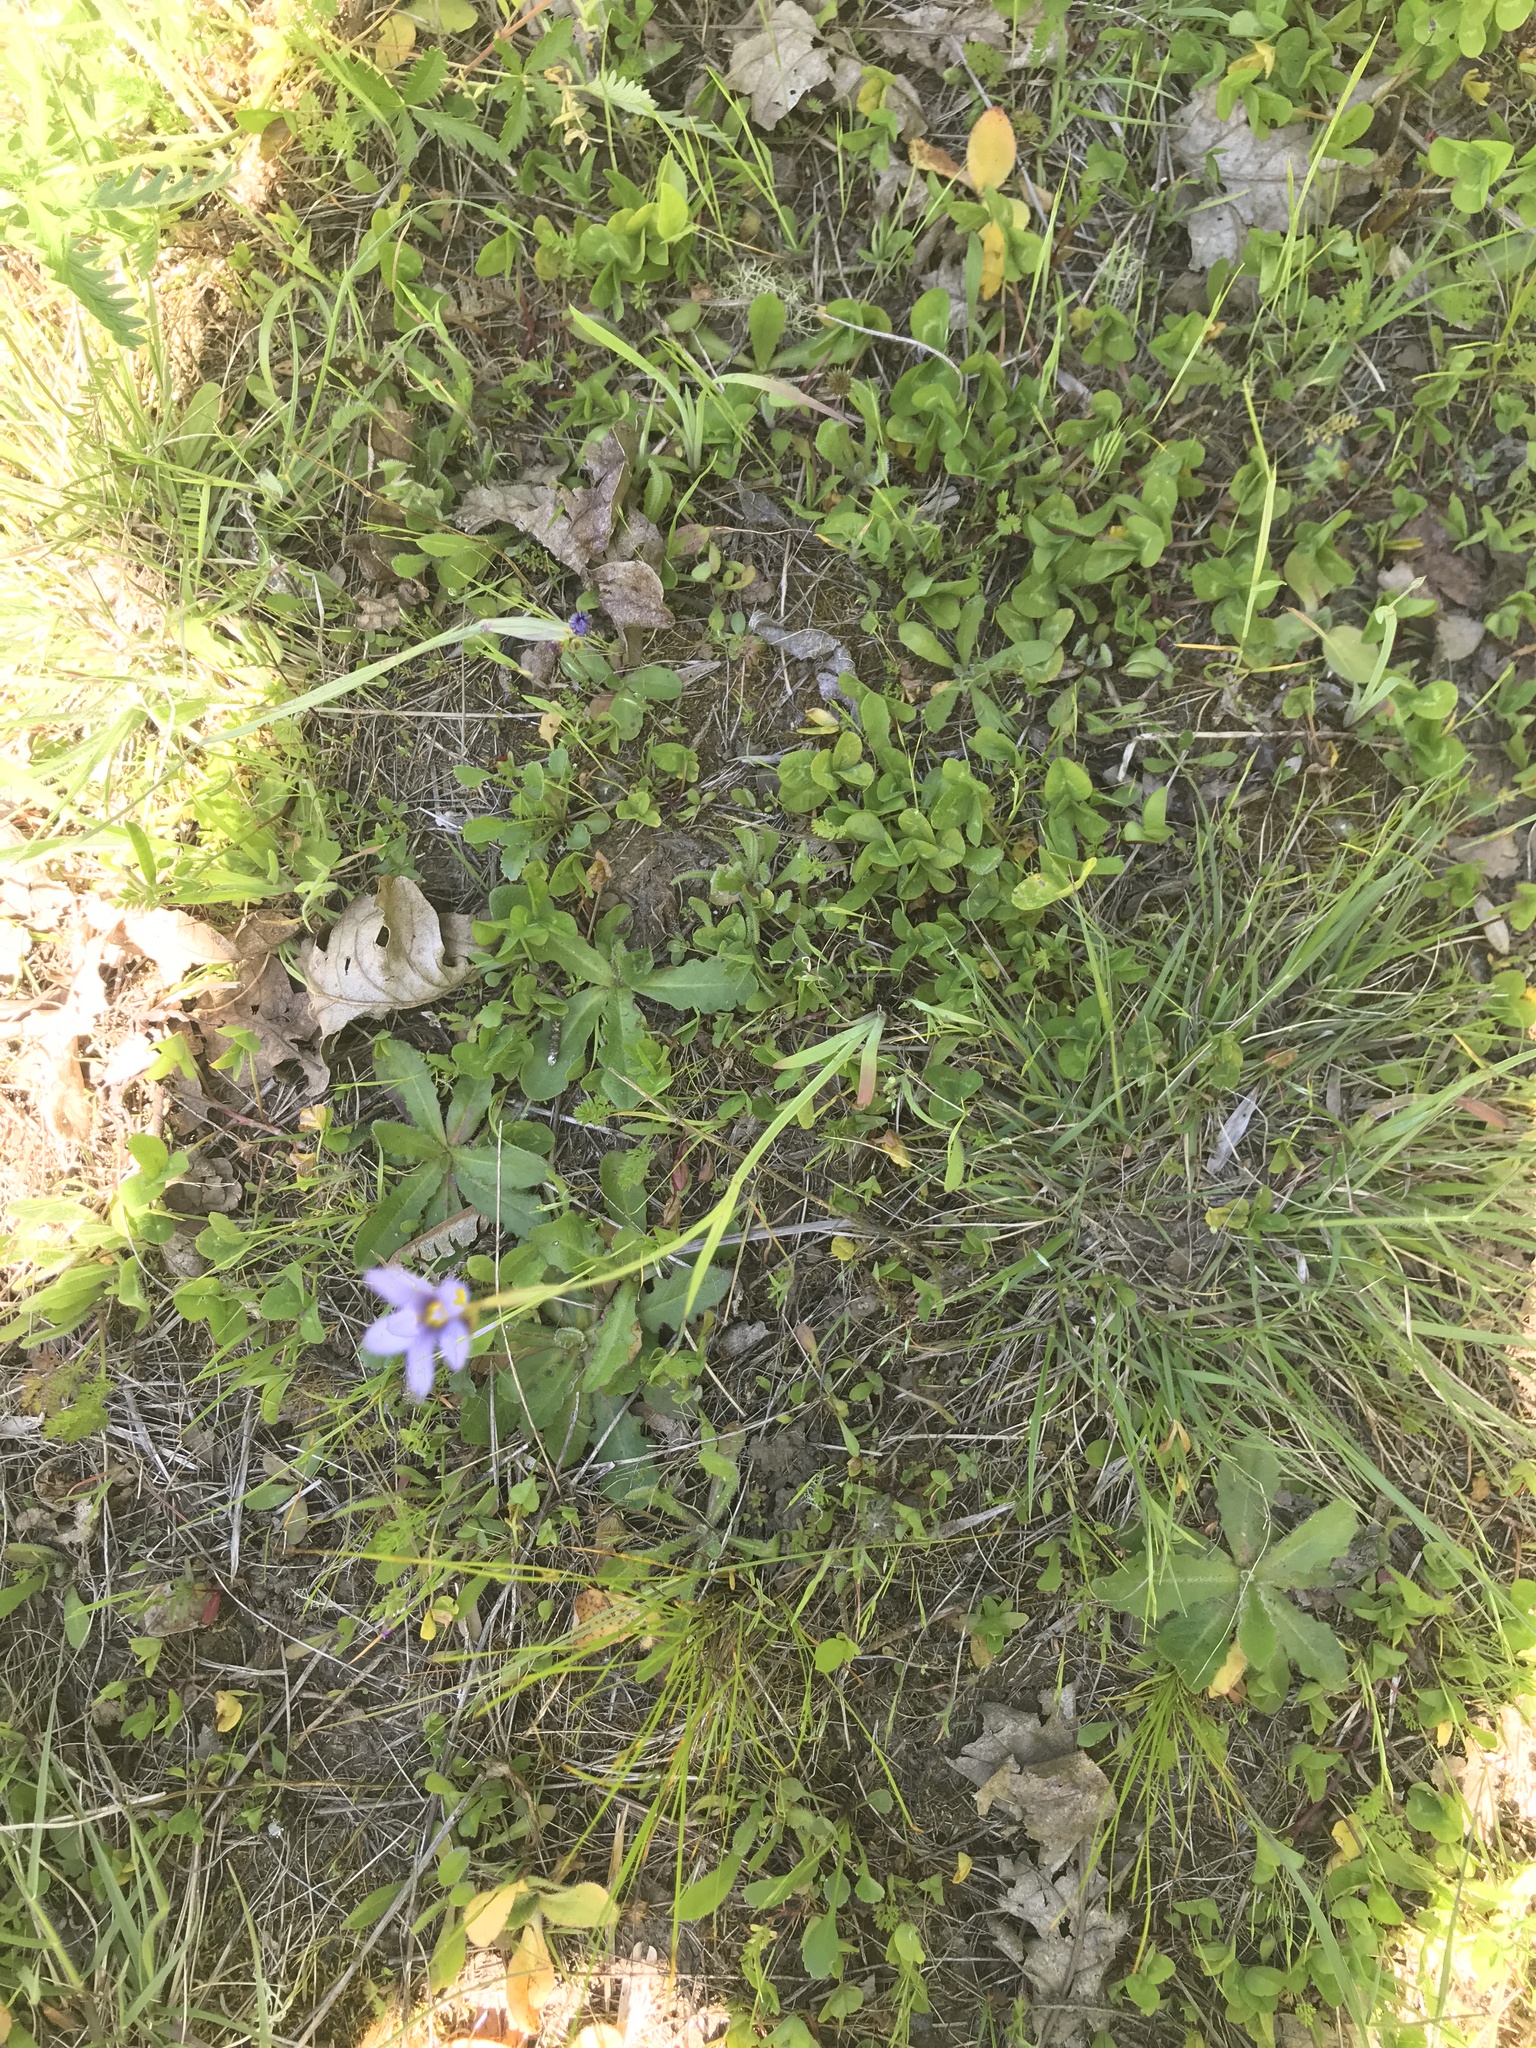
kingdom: Plantae
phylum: Tracheophyta
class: Liliopsida
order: Asparagales
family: Iridaceae
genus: Sisyrinchium
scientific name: Sisyrinchium idahoense
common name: Idaho blue-eyed-grass
